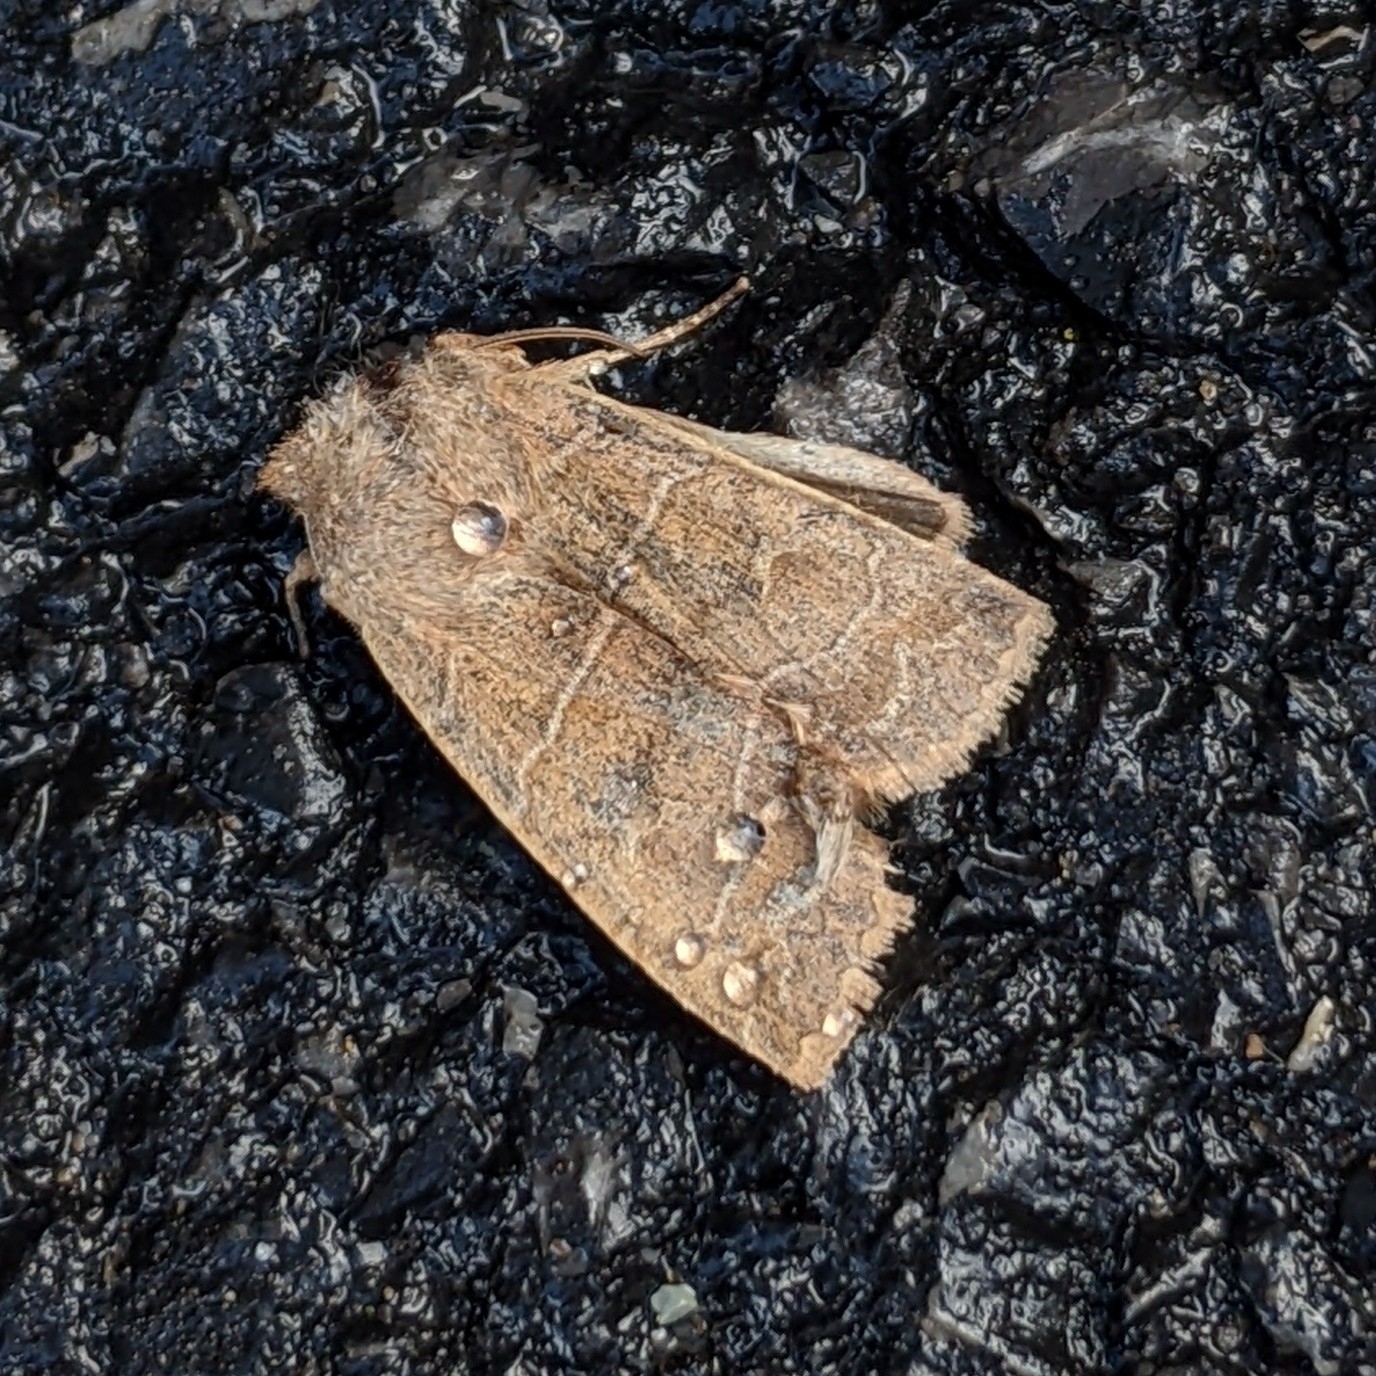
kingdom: Animalia
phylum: Arthropoda
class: Insecta
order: Lepidoptera
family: Noctuidae
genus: Eupsilia
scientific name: Eupsilia morrisoni
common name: Morrison's sallow
